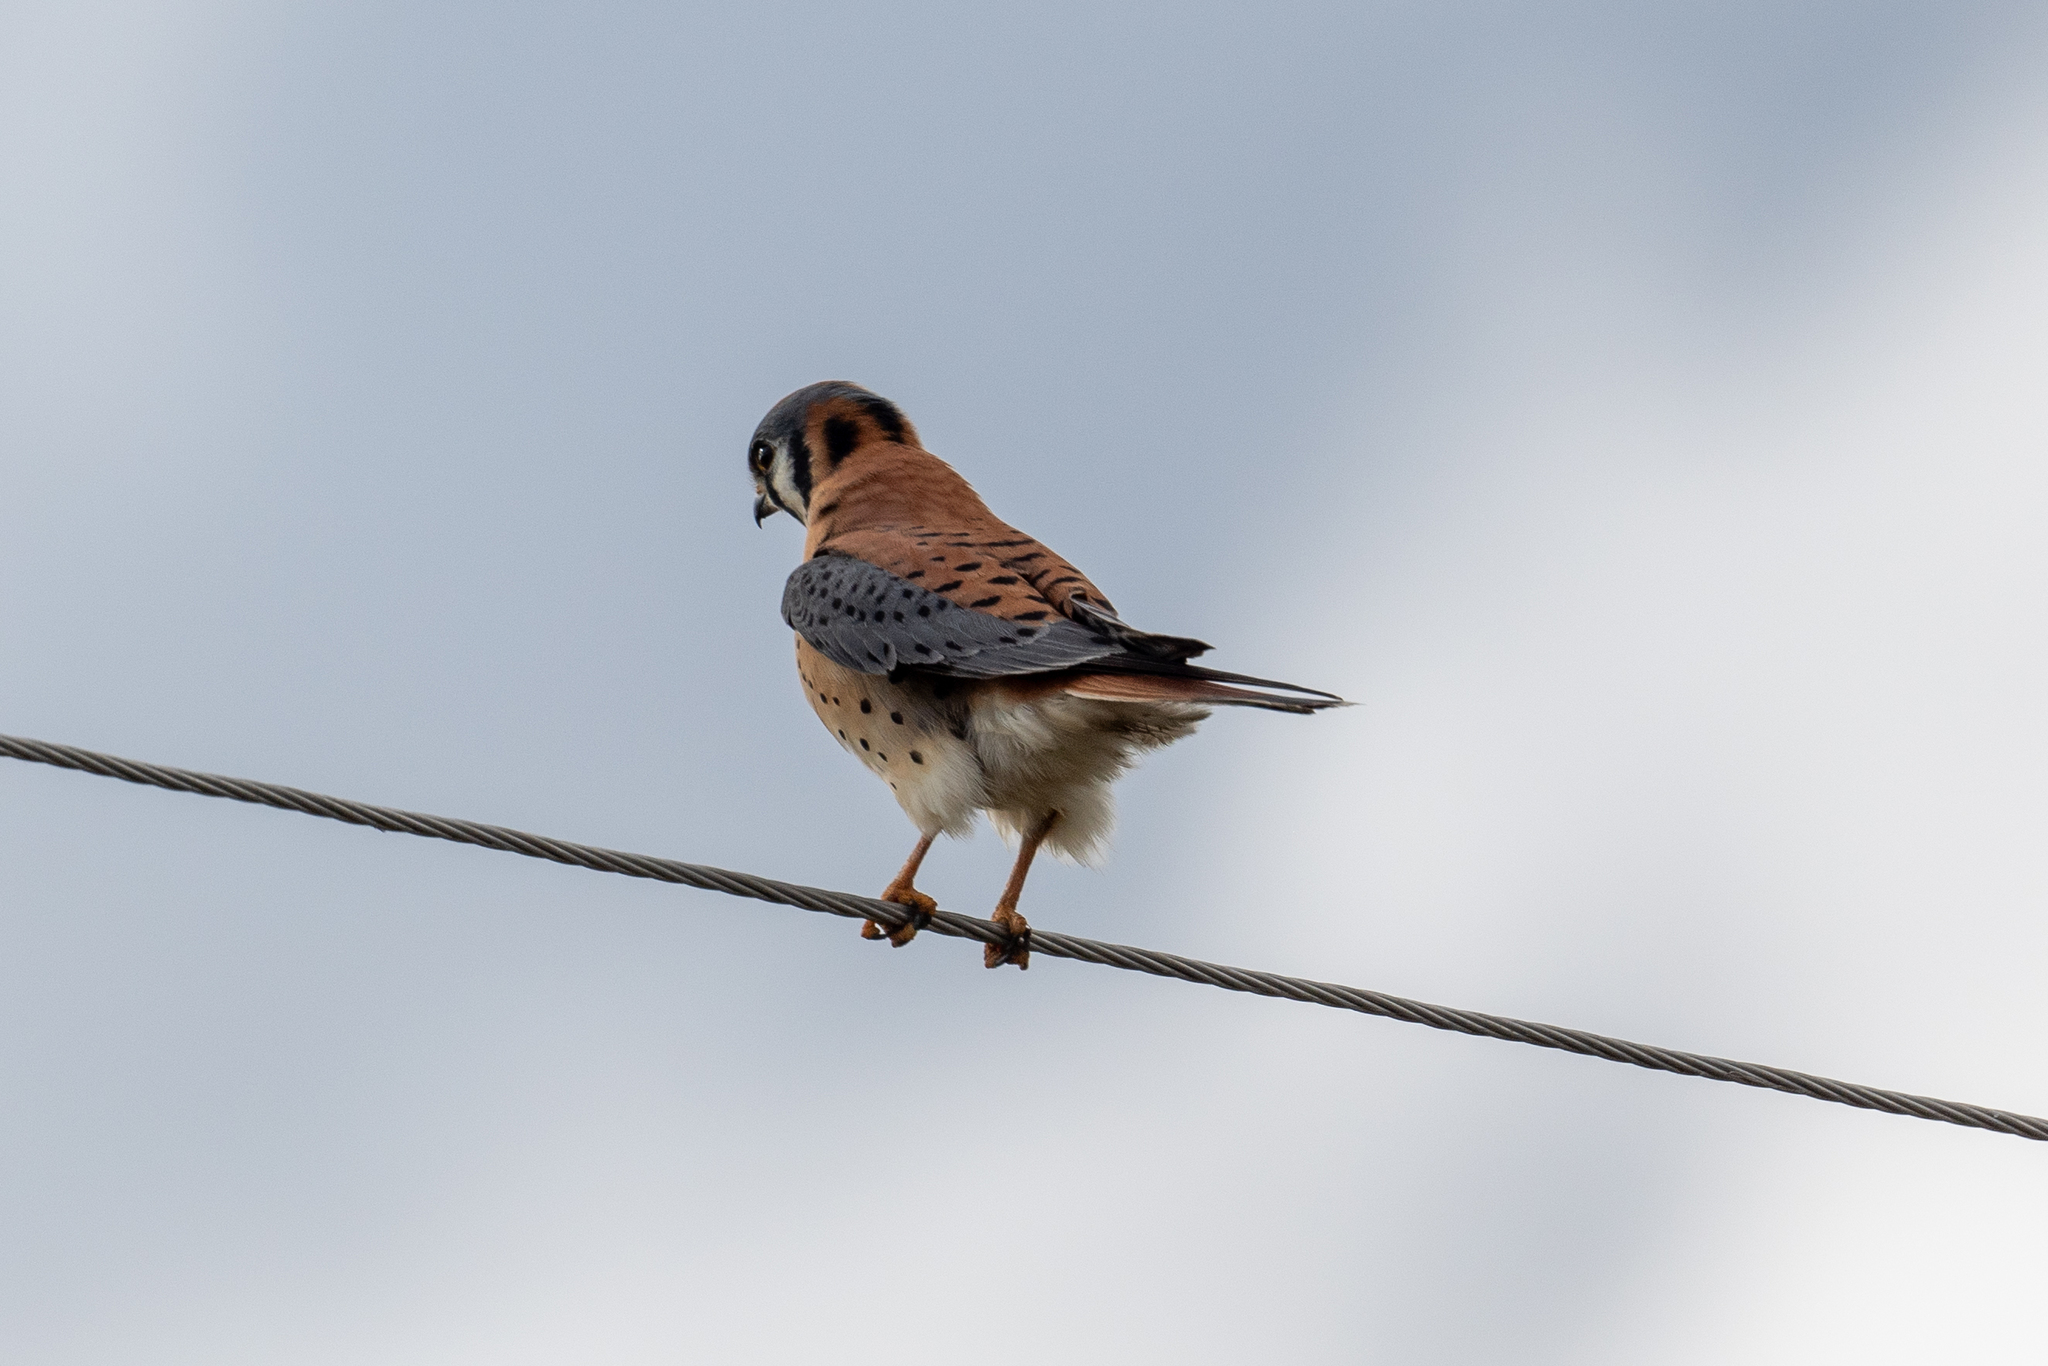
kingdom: Animalia
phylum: Chordata
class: Aves
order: Falconiformes
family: Falconidae
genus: Falco
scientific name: Falco sparverius
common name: American kestrel
